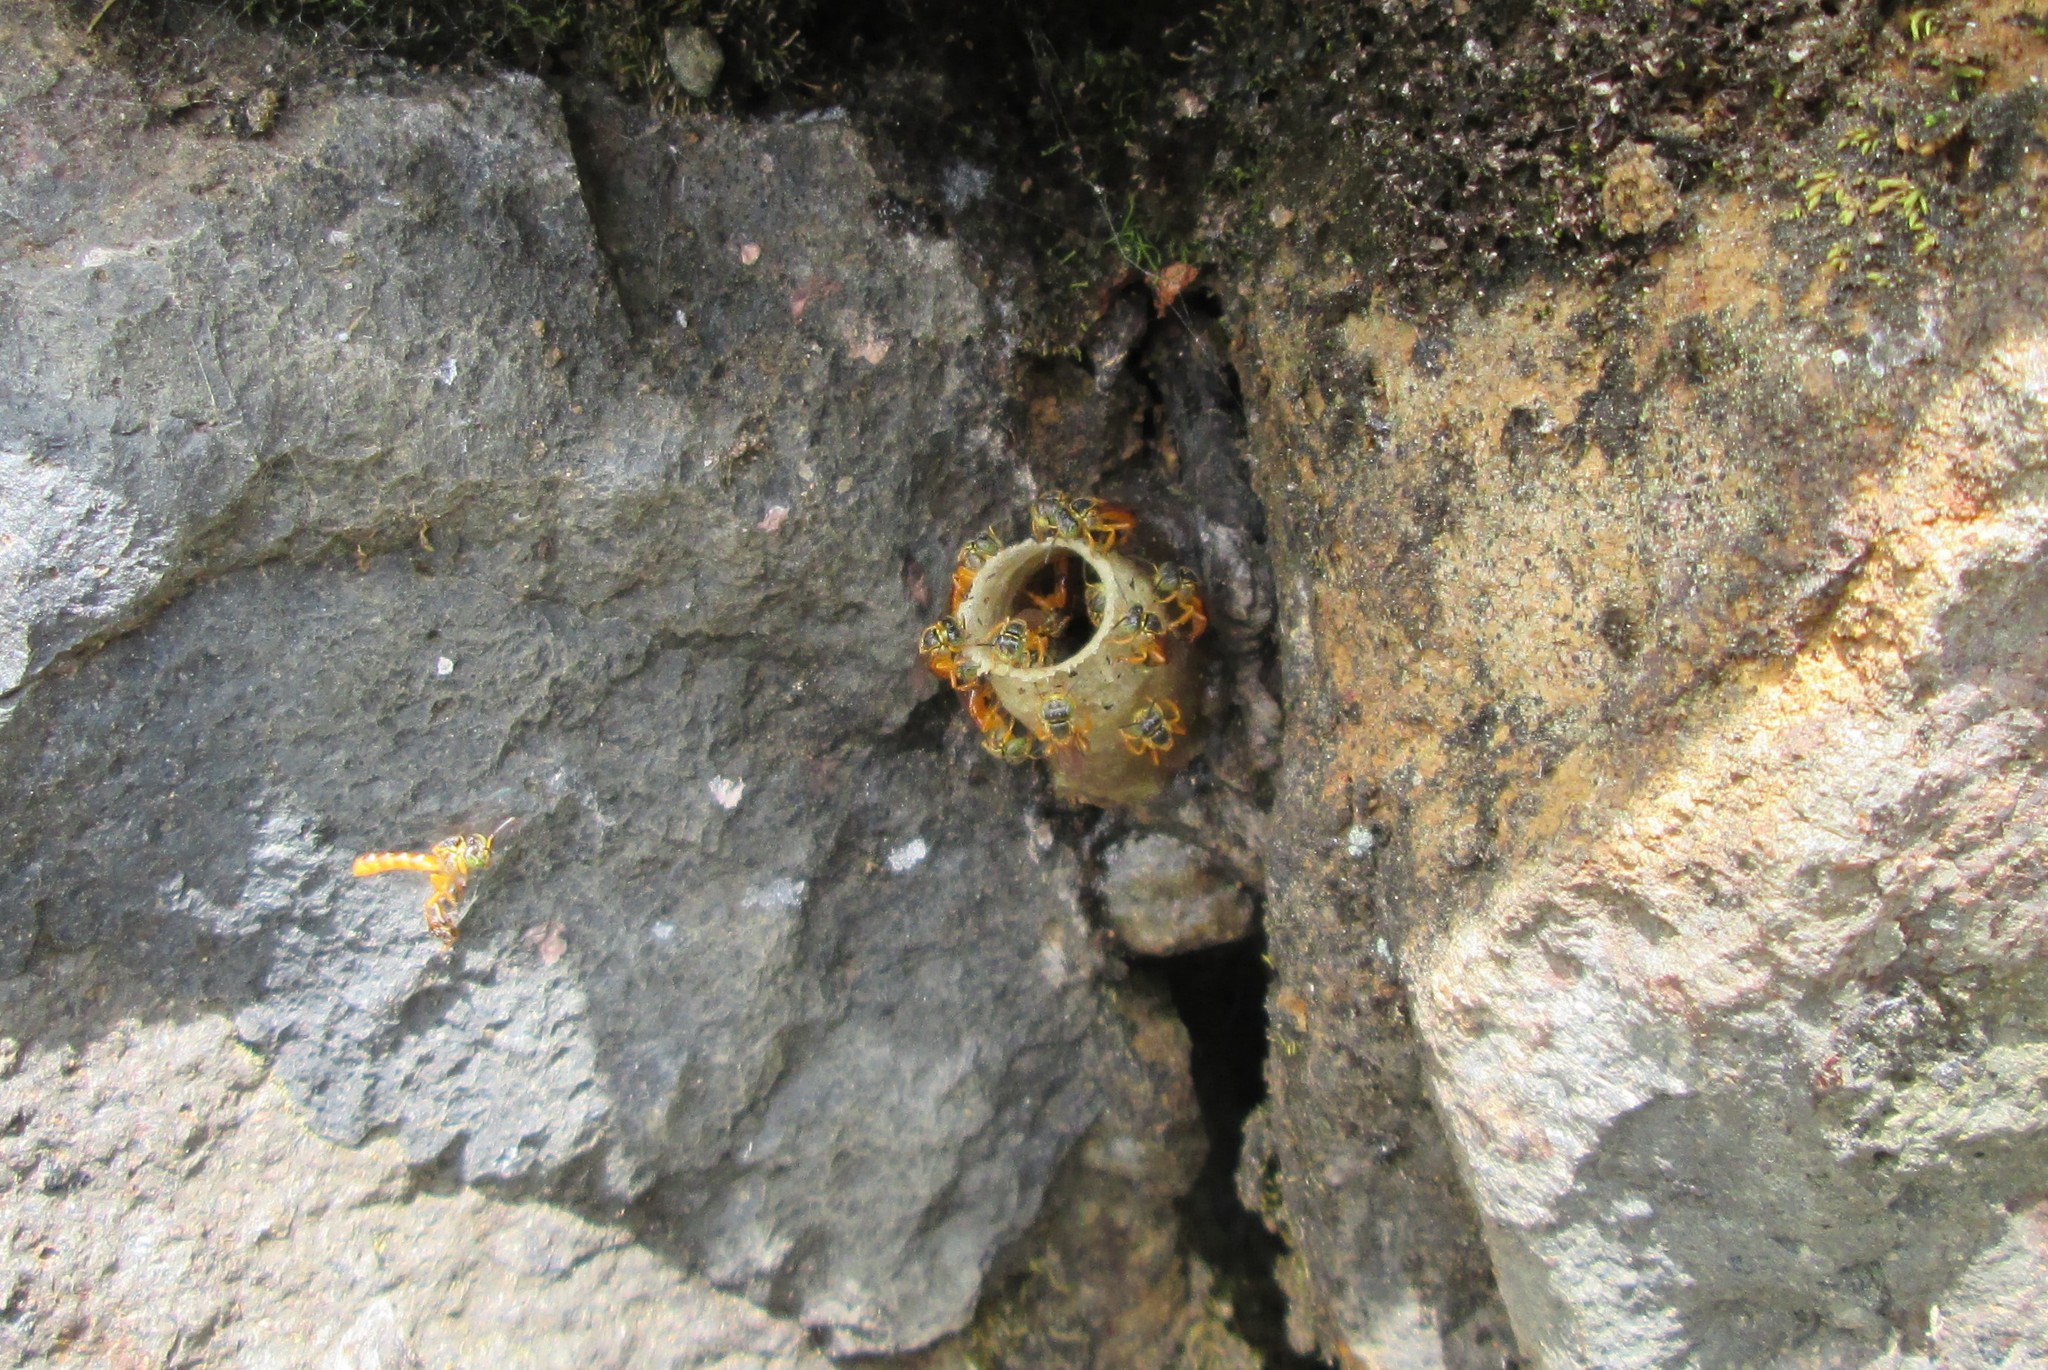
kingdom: Animalia
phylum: Arthropoda
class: Insecta
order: Hymenoptera
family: Apidae
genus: Tetragonisca
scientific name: Tetragonisca angustula
